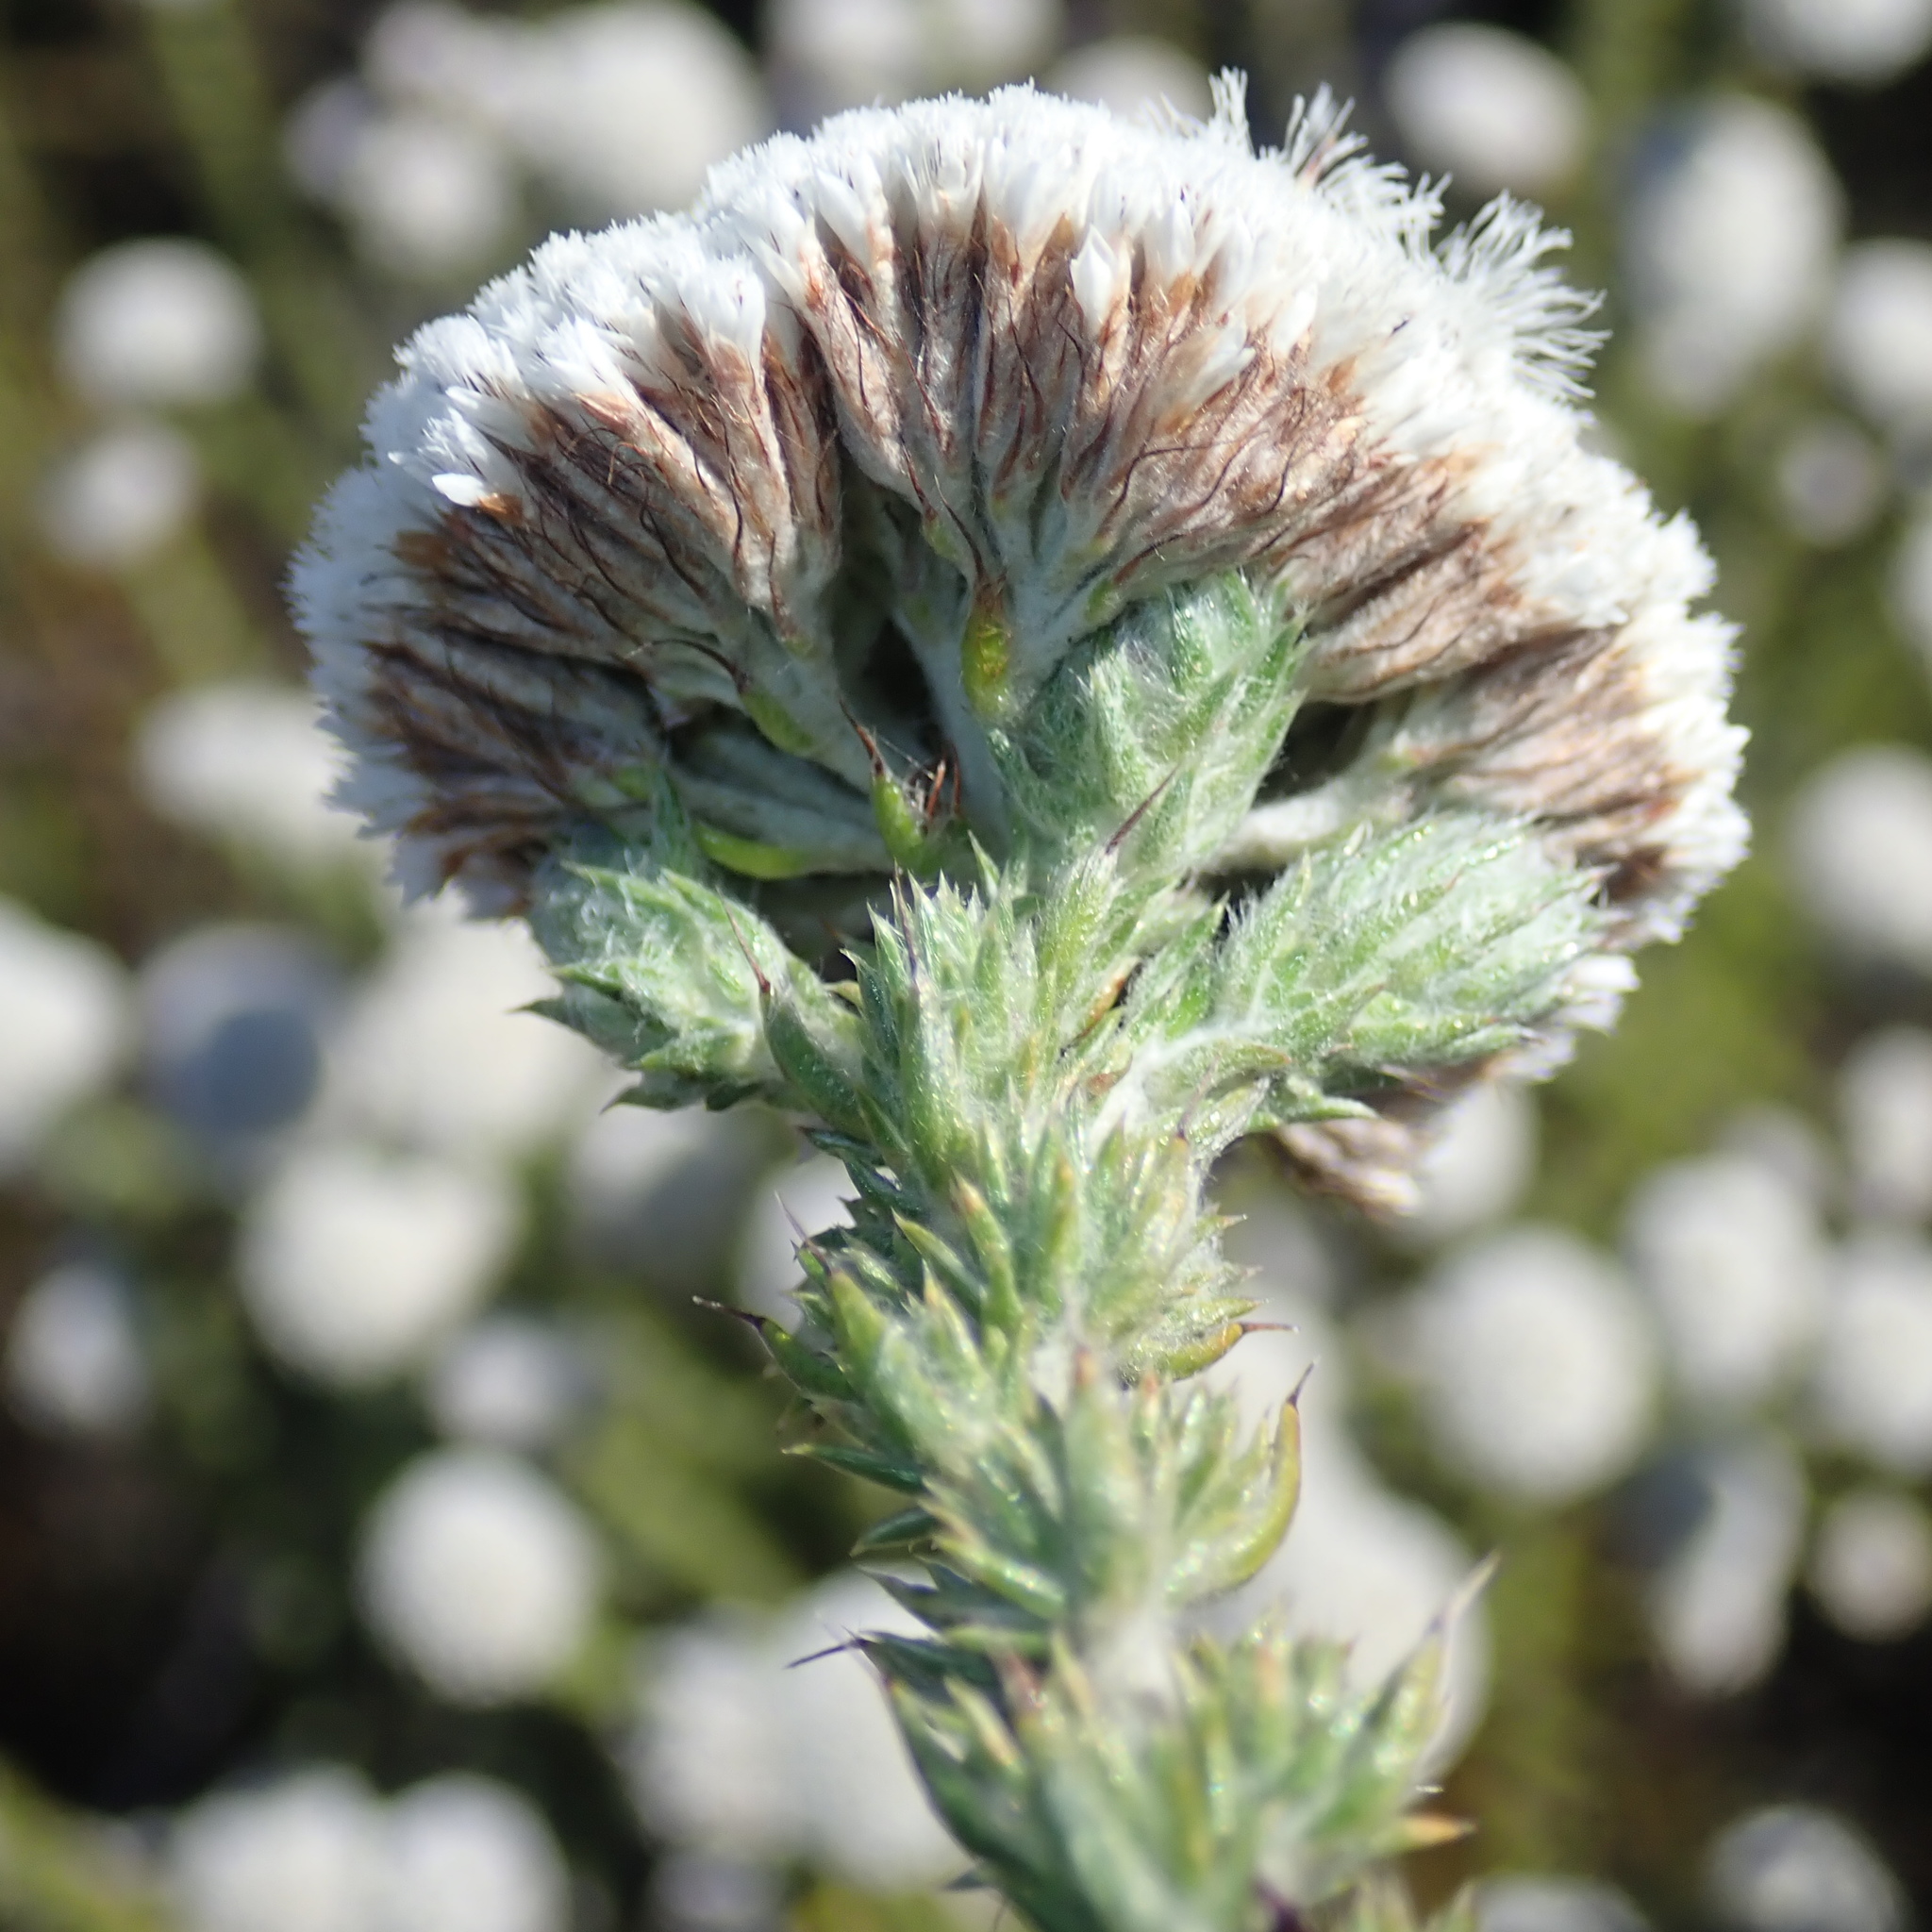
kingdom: Plantae
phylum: Tracheophyta
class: Magnoliopsida
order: Asterales
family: Asteraceae
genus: Metalasia
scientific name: Metalasia trivialis
